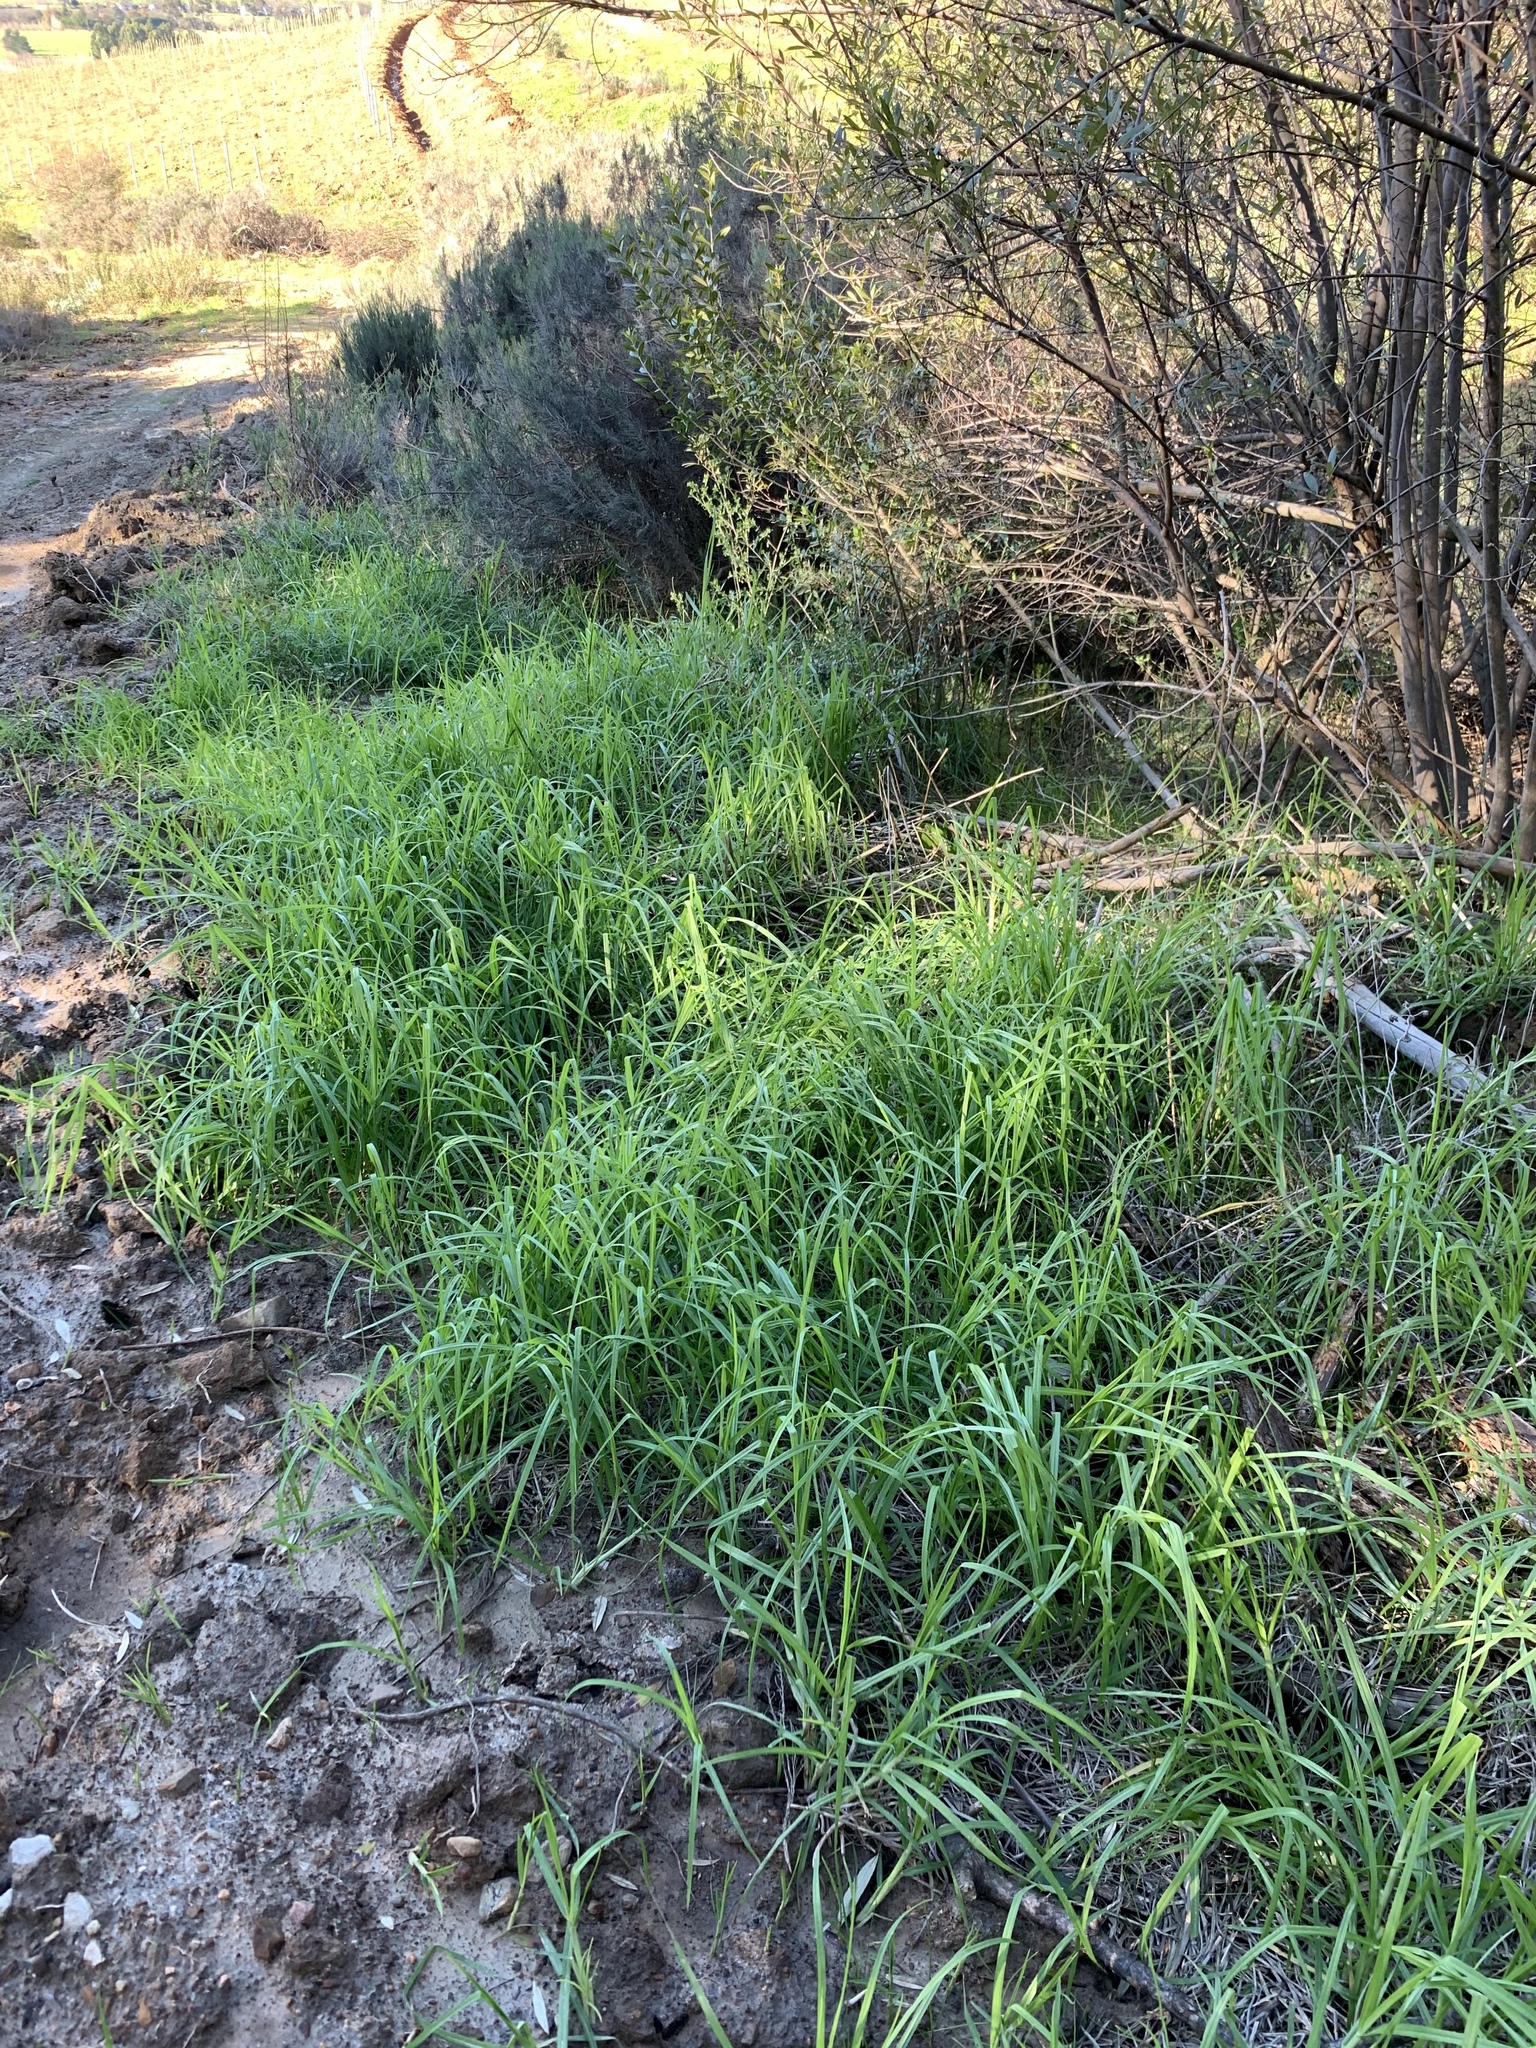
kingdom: Plantae
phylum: Tracheophyta
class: Liliopsida
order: Poales
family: Poaceae
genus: Cenchrus
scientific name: Cenchrus clandestinus
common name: Kikuyugrass
